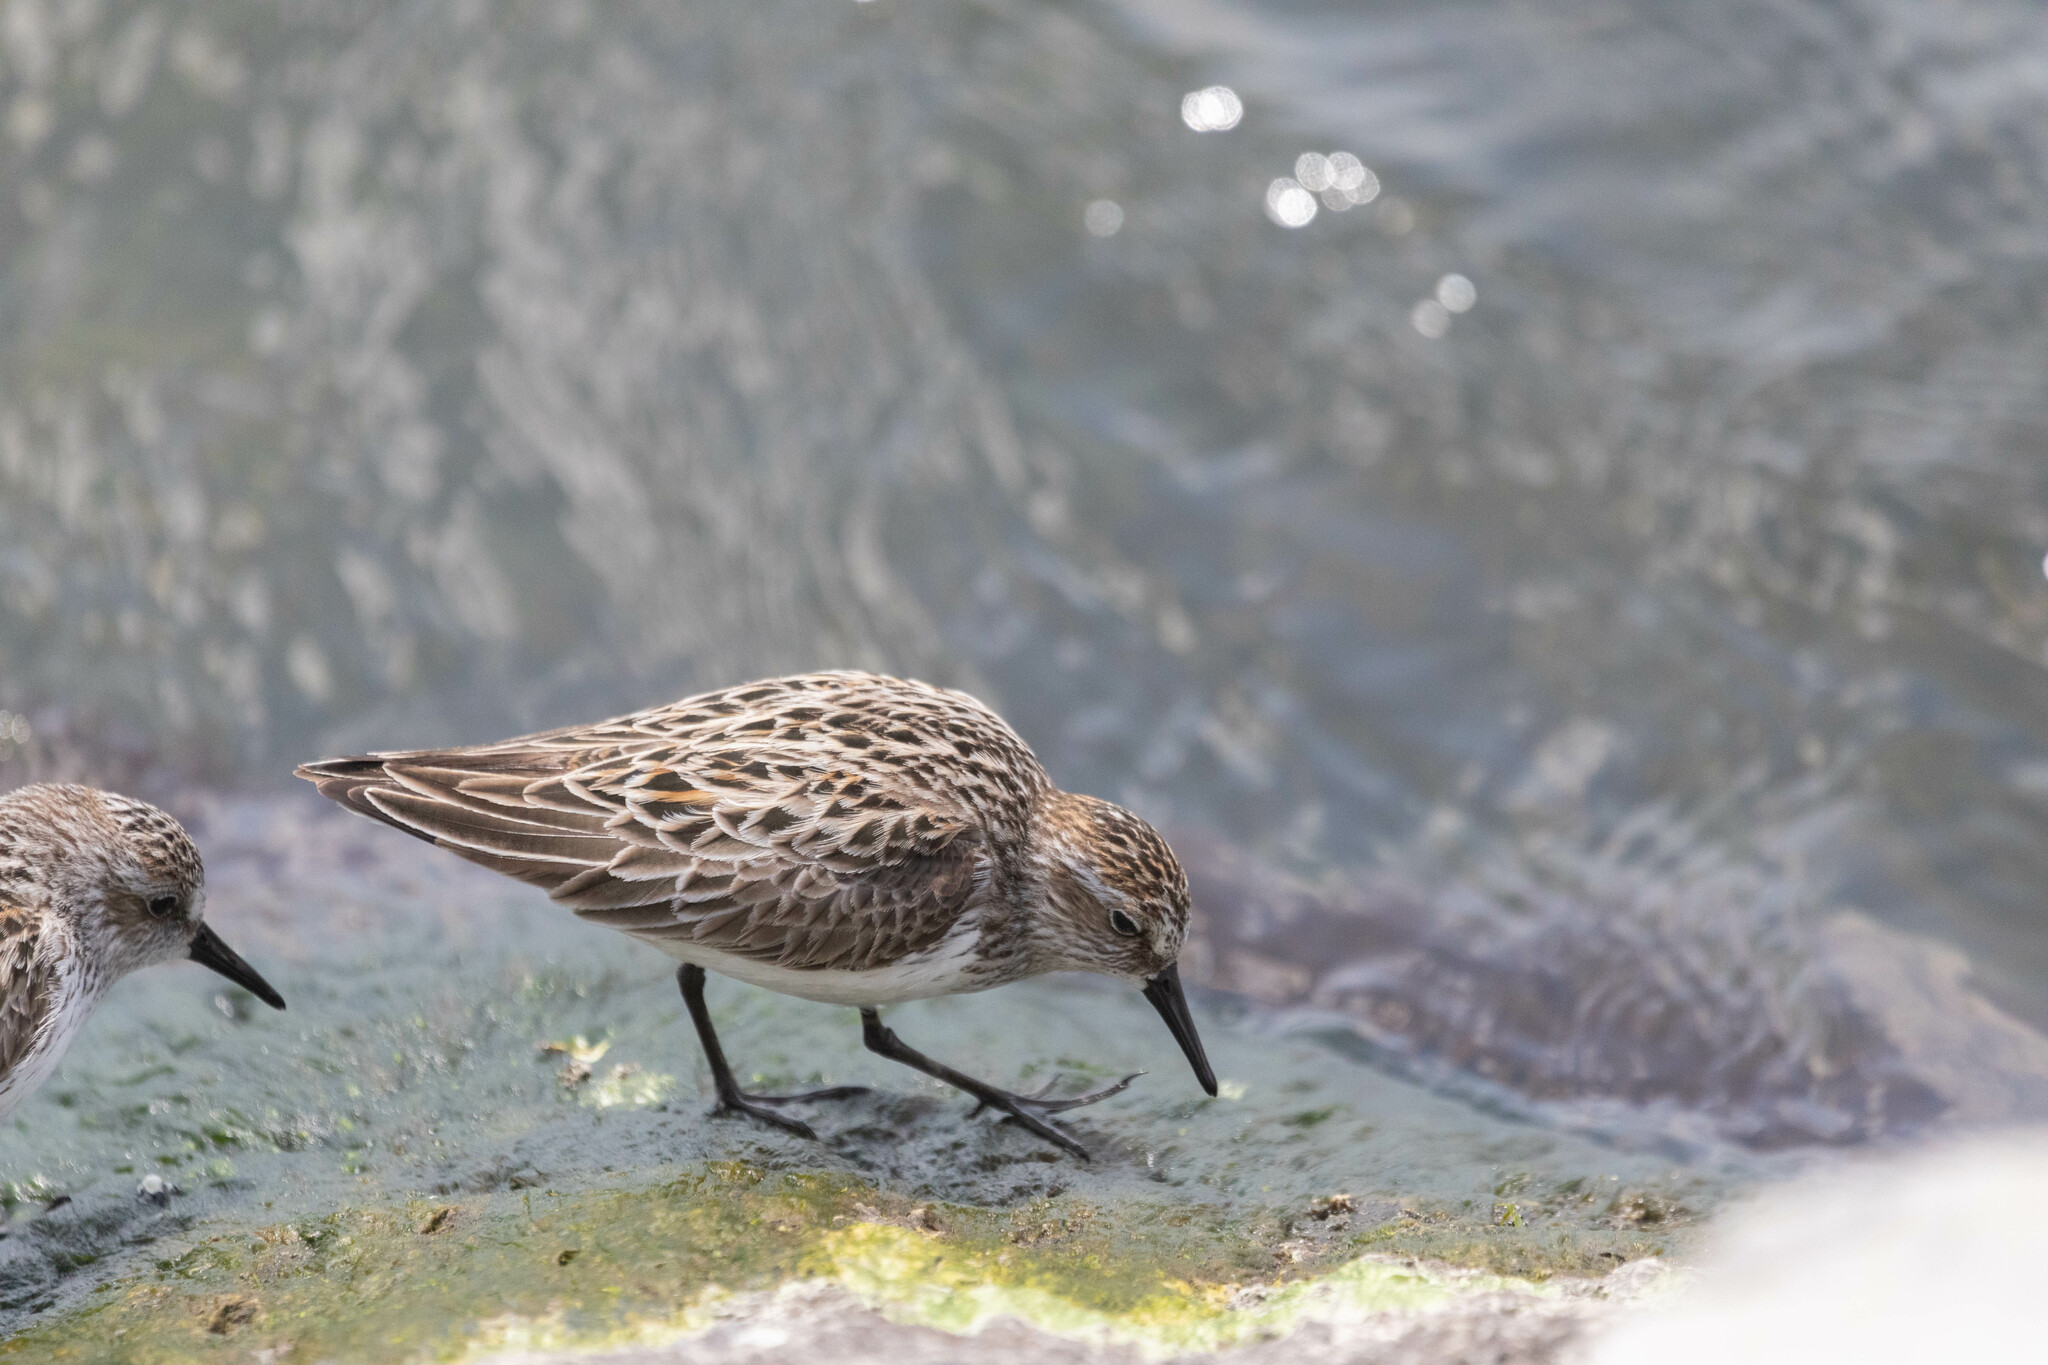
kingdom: Animalia
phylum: Chordata
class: Aves
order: Charadriiformes
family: Scolopacidae
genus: Calidris
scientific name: Calidris pusilla
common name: Semipalmated sandpiper
